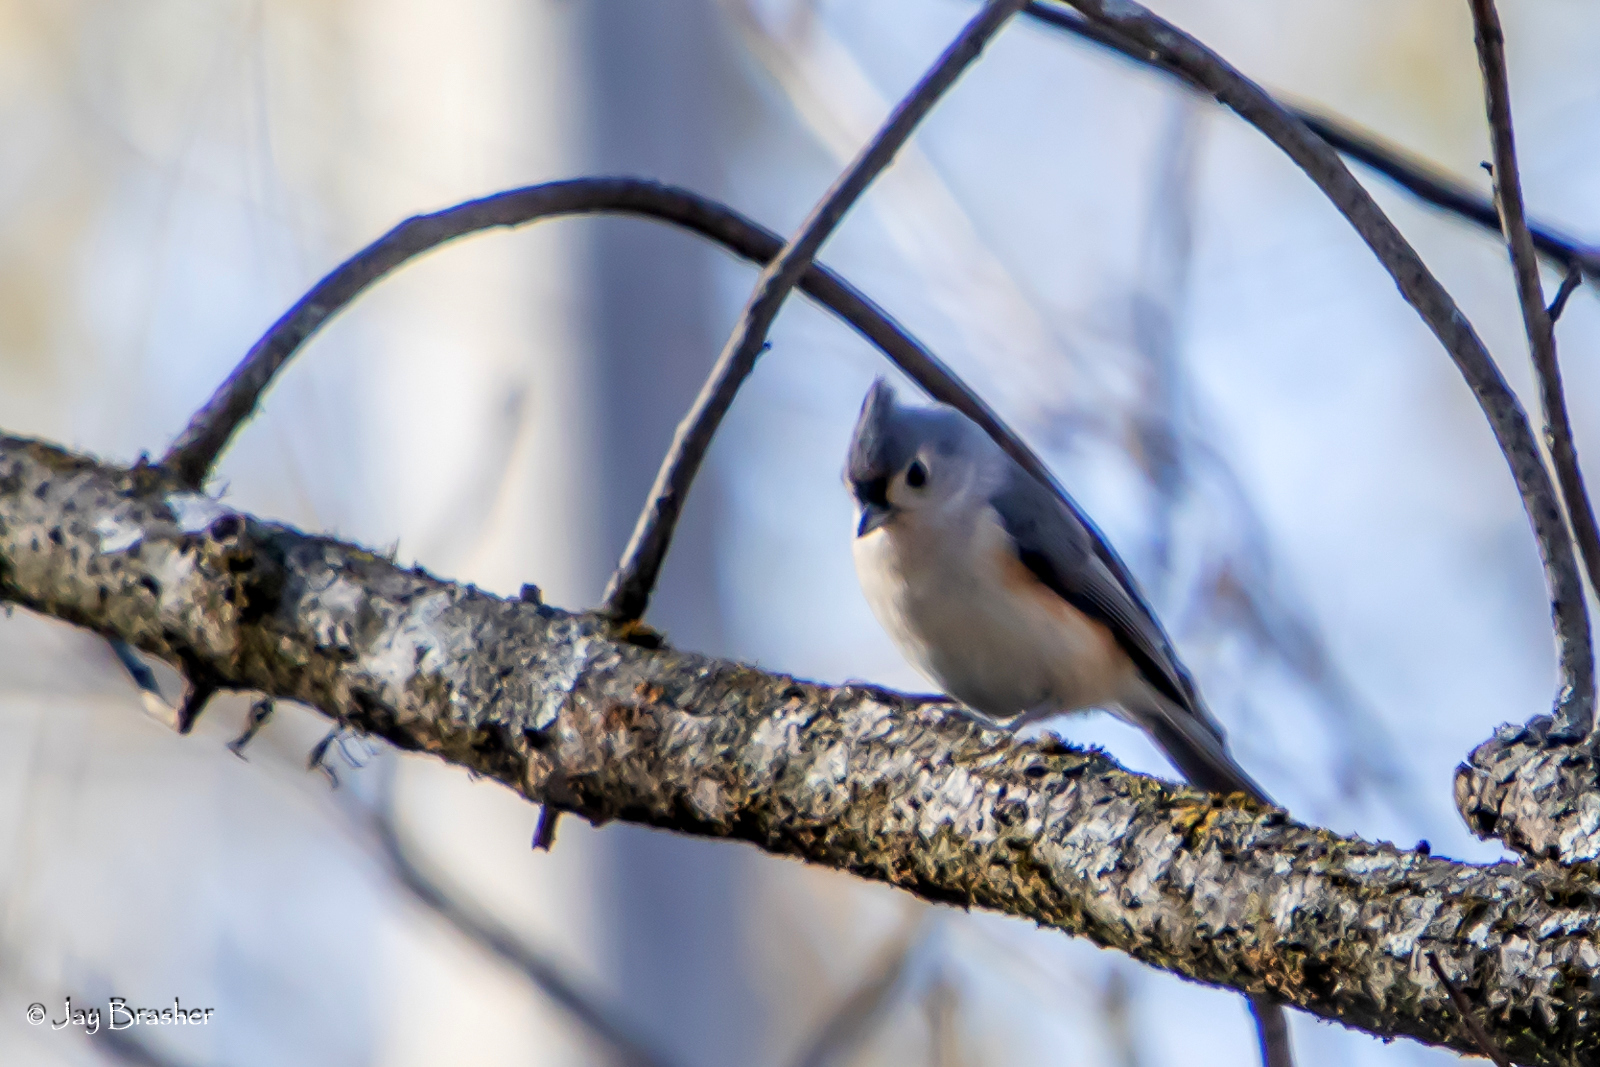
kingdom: Animalia
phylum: Chordata
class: Aves
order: Passeriformes
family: Paridae
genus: Baeolophus
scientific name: Baeolophus bicolor
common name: Tufted titmouse
